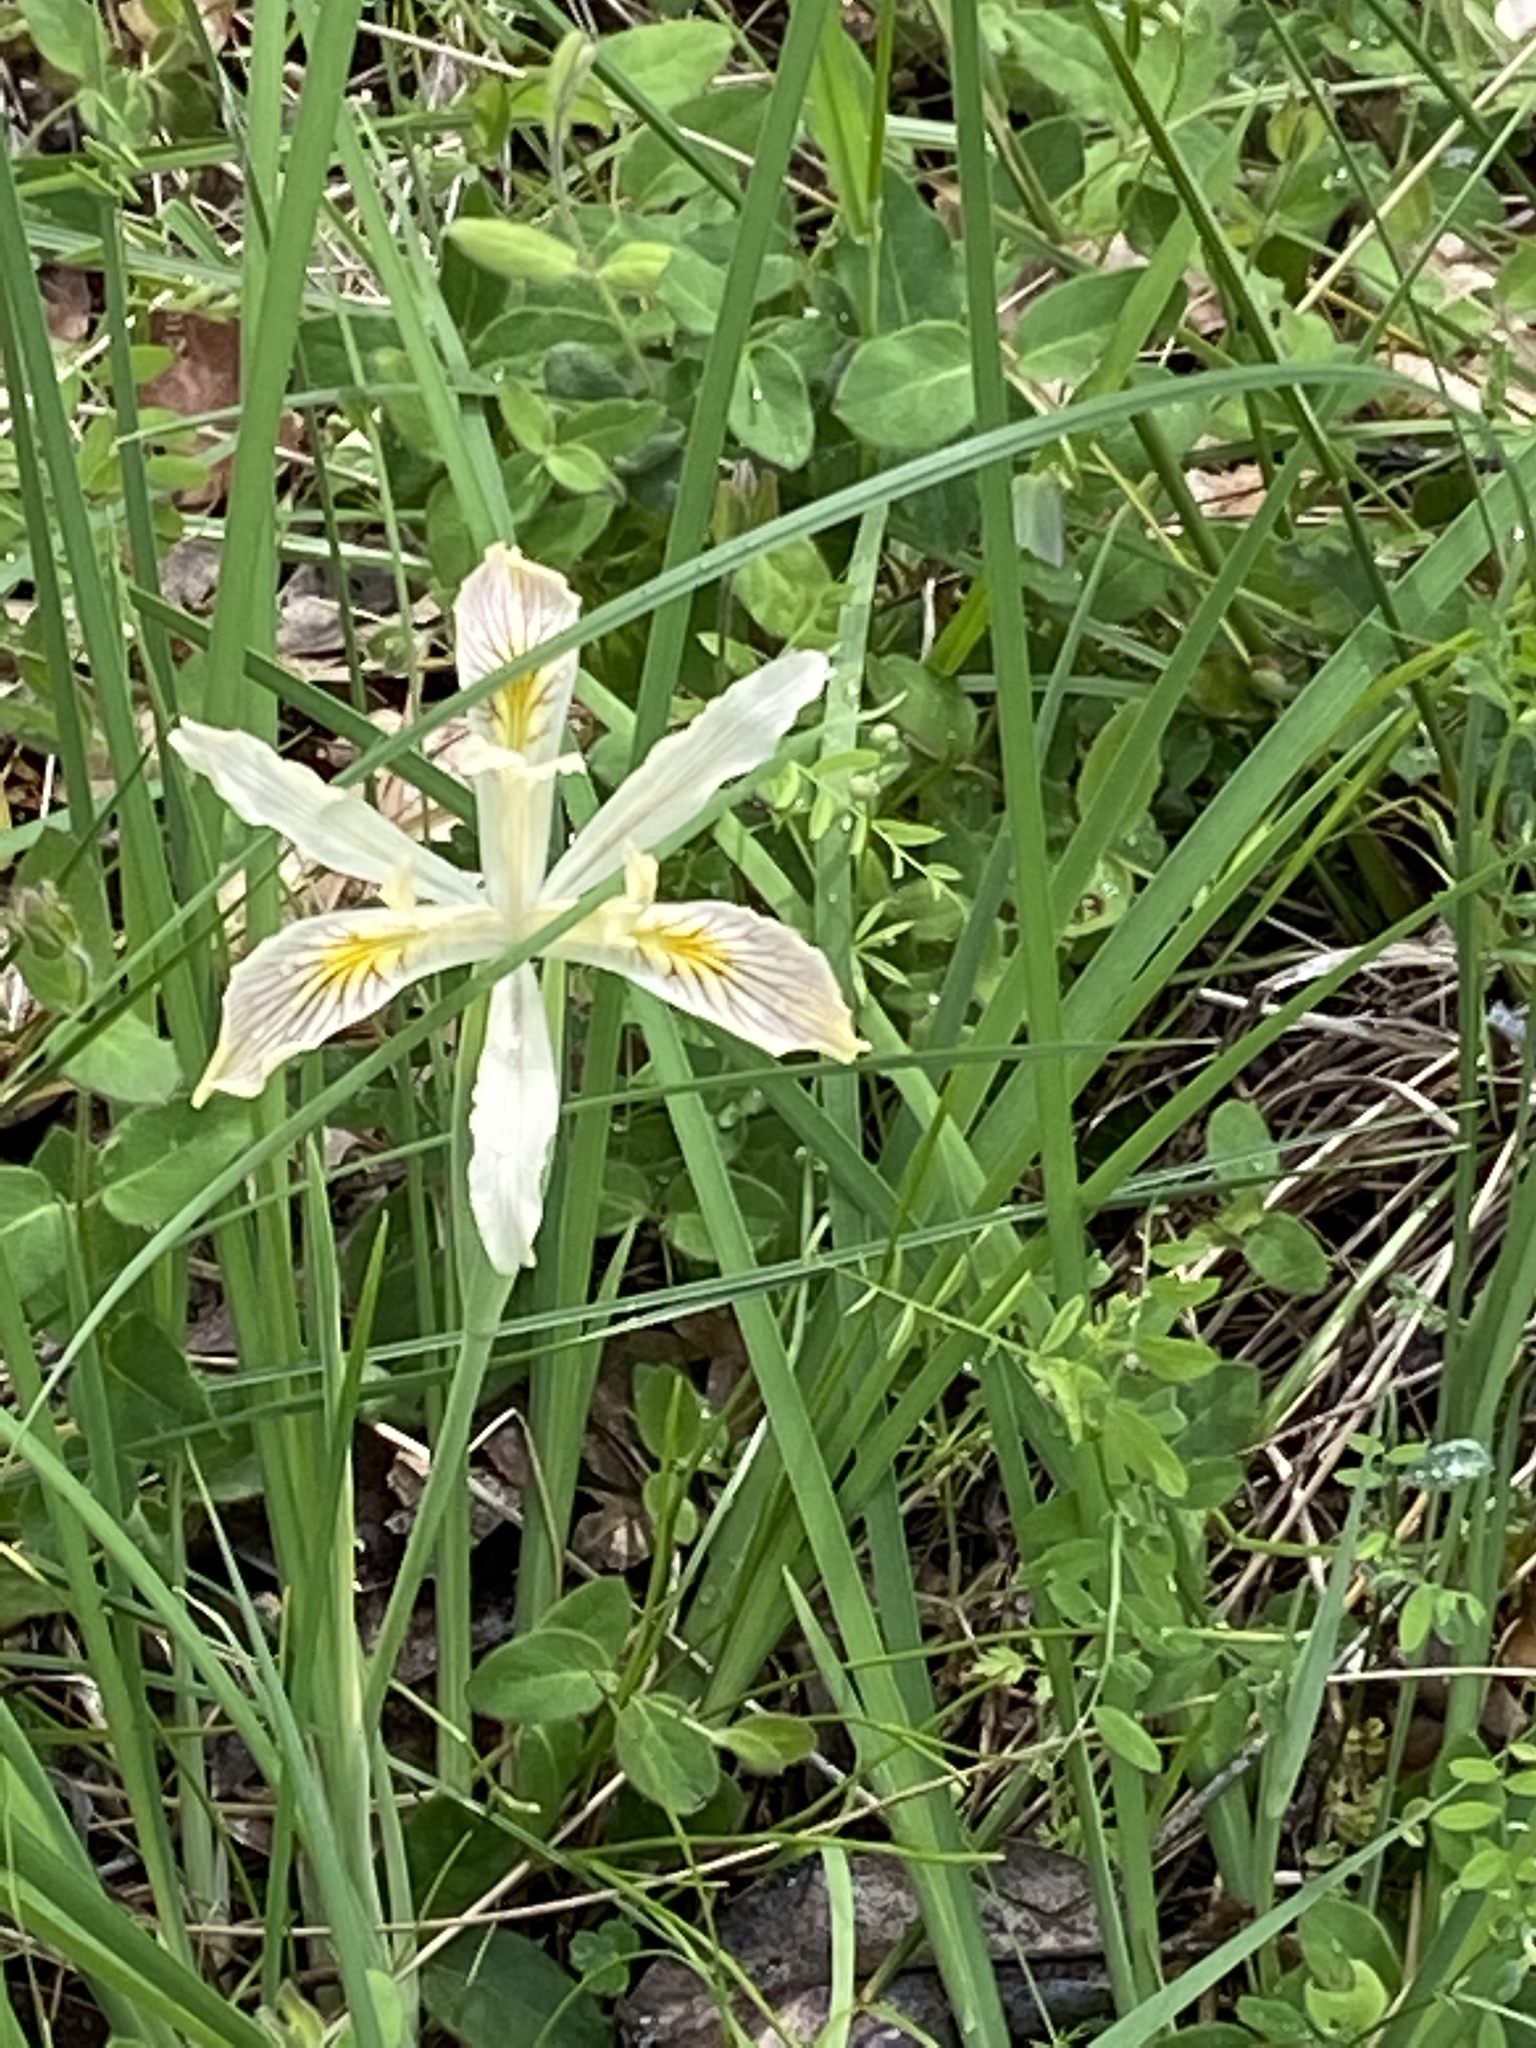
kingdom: Plantae
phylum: Tracheophyta
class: Liliopsida
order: Asparagales
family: Iridaceae
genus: Iris
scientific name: Iris chrysophylla
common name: Yellow-leaf iris
